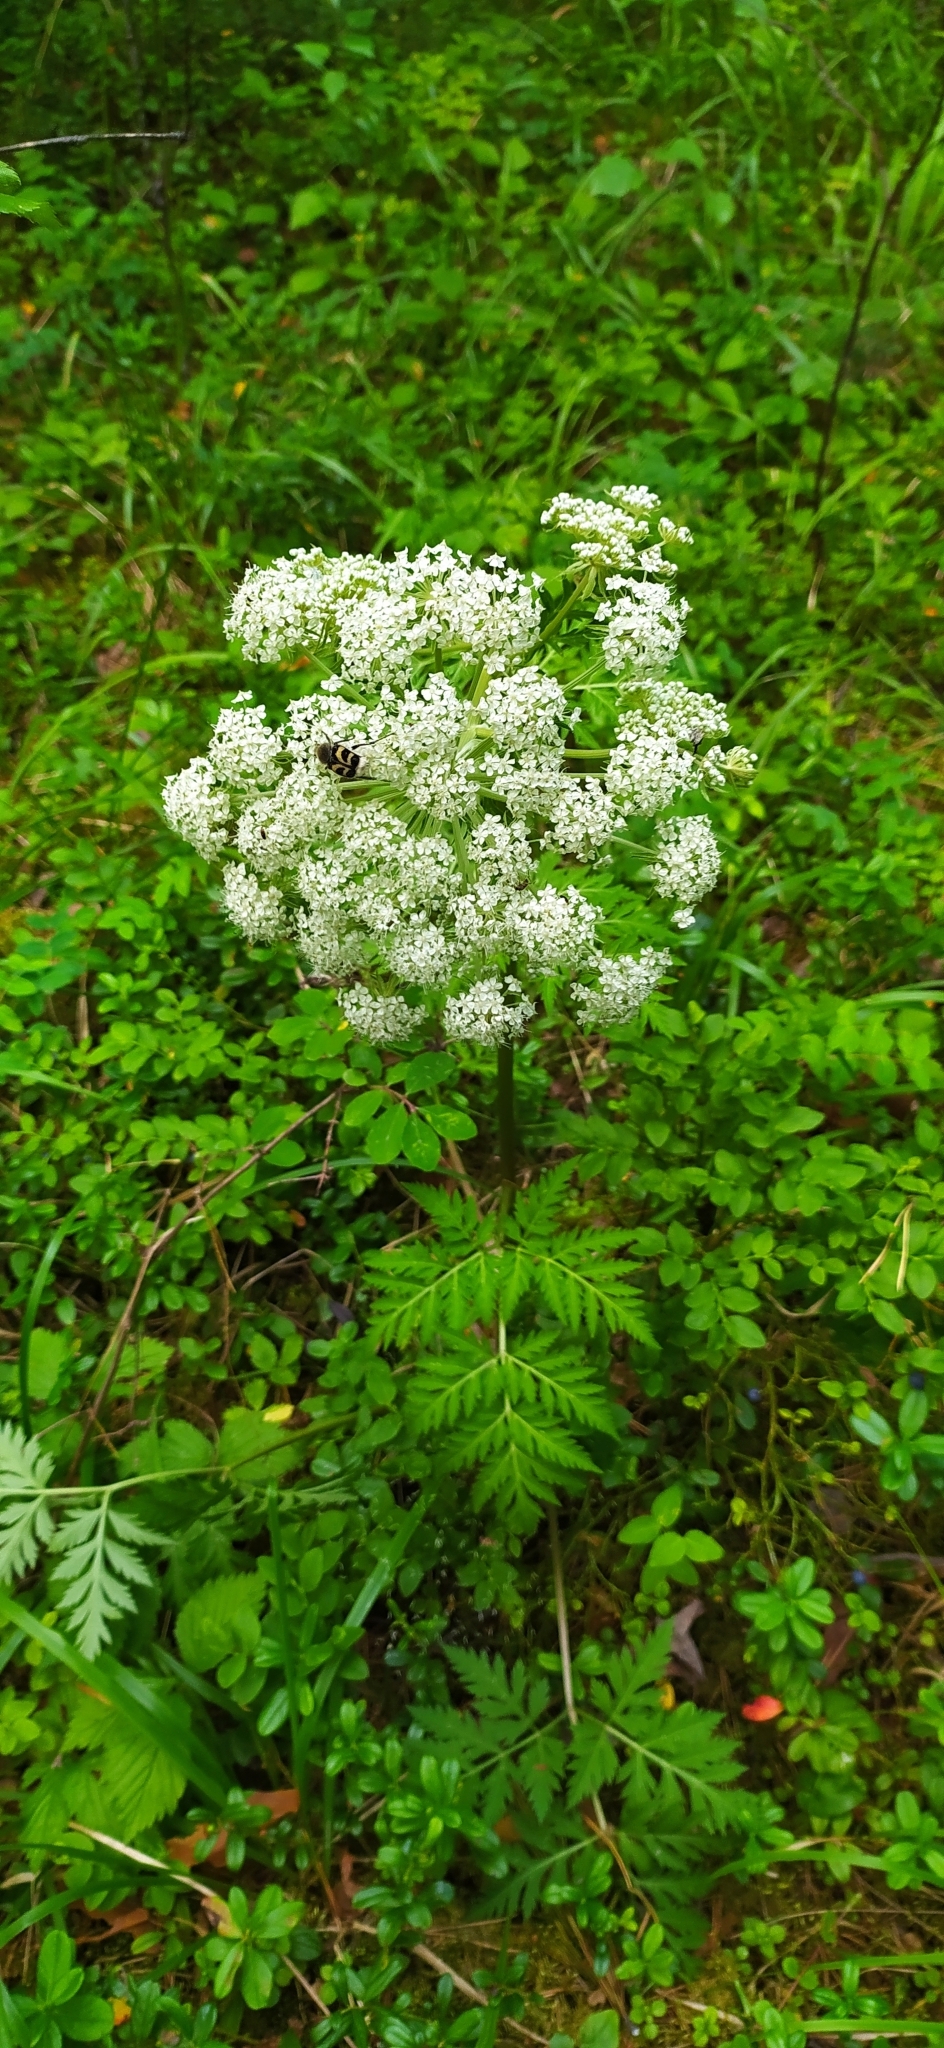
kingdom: Plantae
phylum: Tracheophyta
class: Magnoliopsida
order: Apiales
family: Apiaceae
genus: Pleurospermum
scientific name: Pleurospermum uralense
